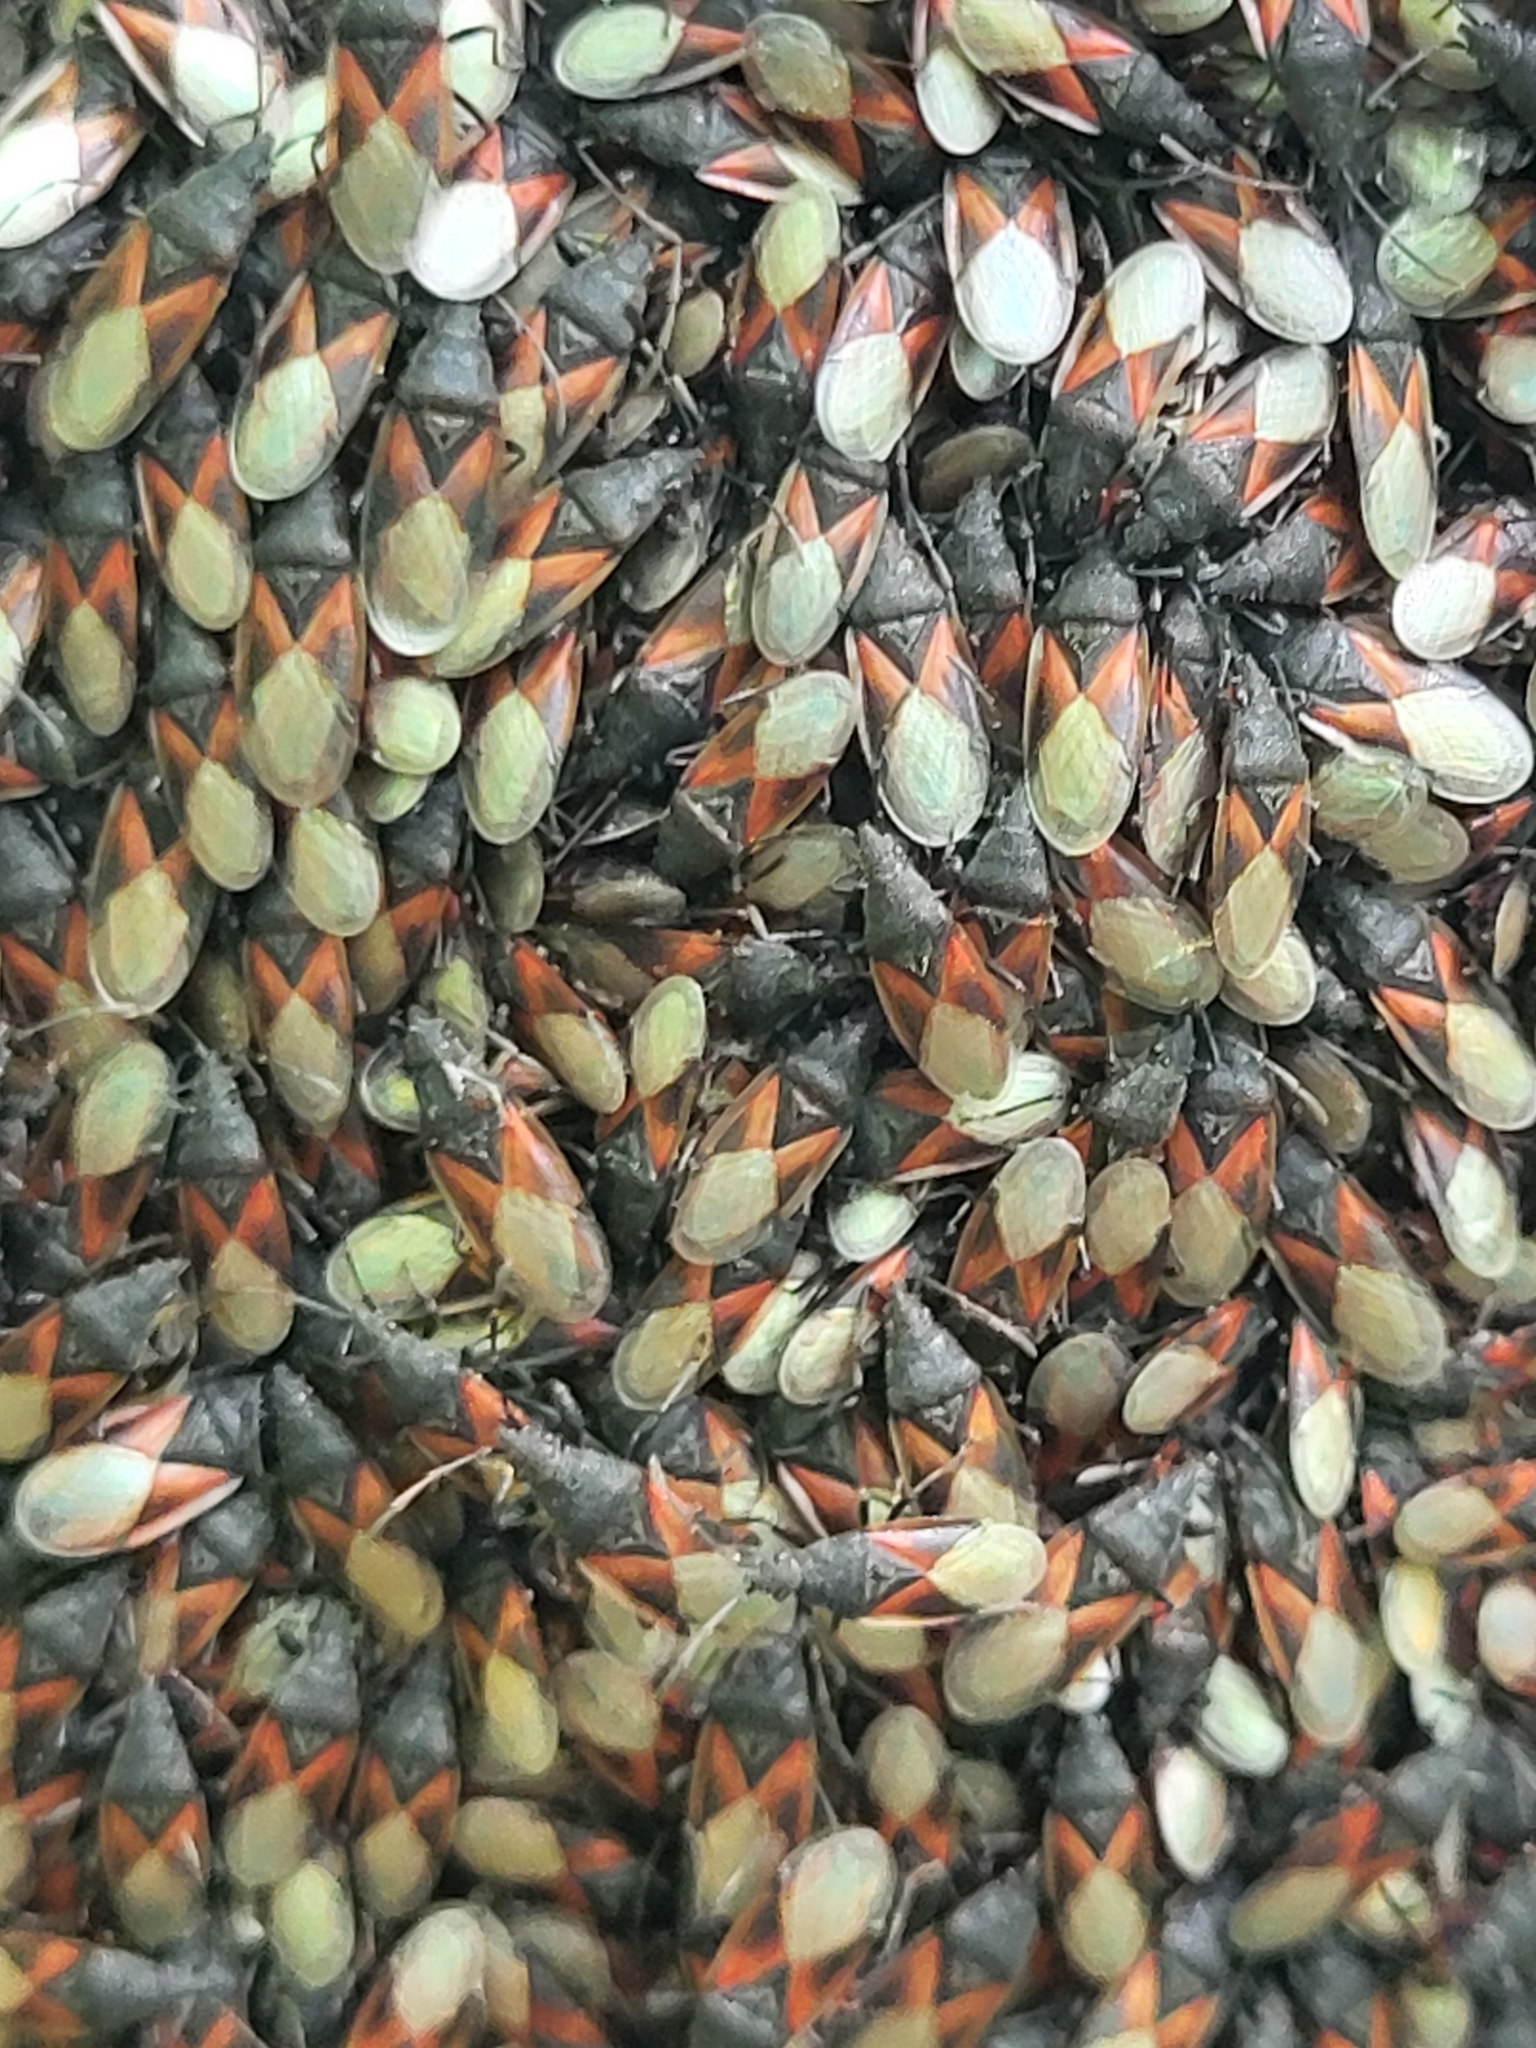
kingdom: Animalia
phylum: Arthropoda
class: Insecta
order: Hemiptera
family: Oxycarenidae
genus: Oxycarenus
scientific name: Oxycarenus lavaterae
